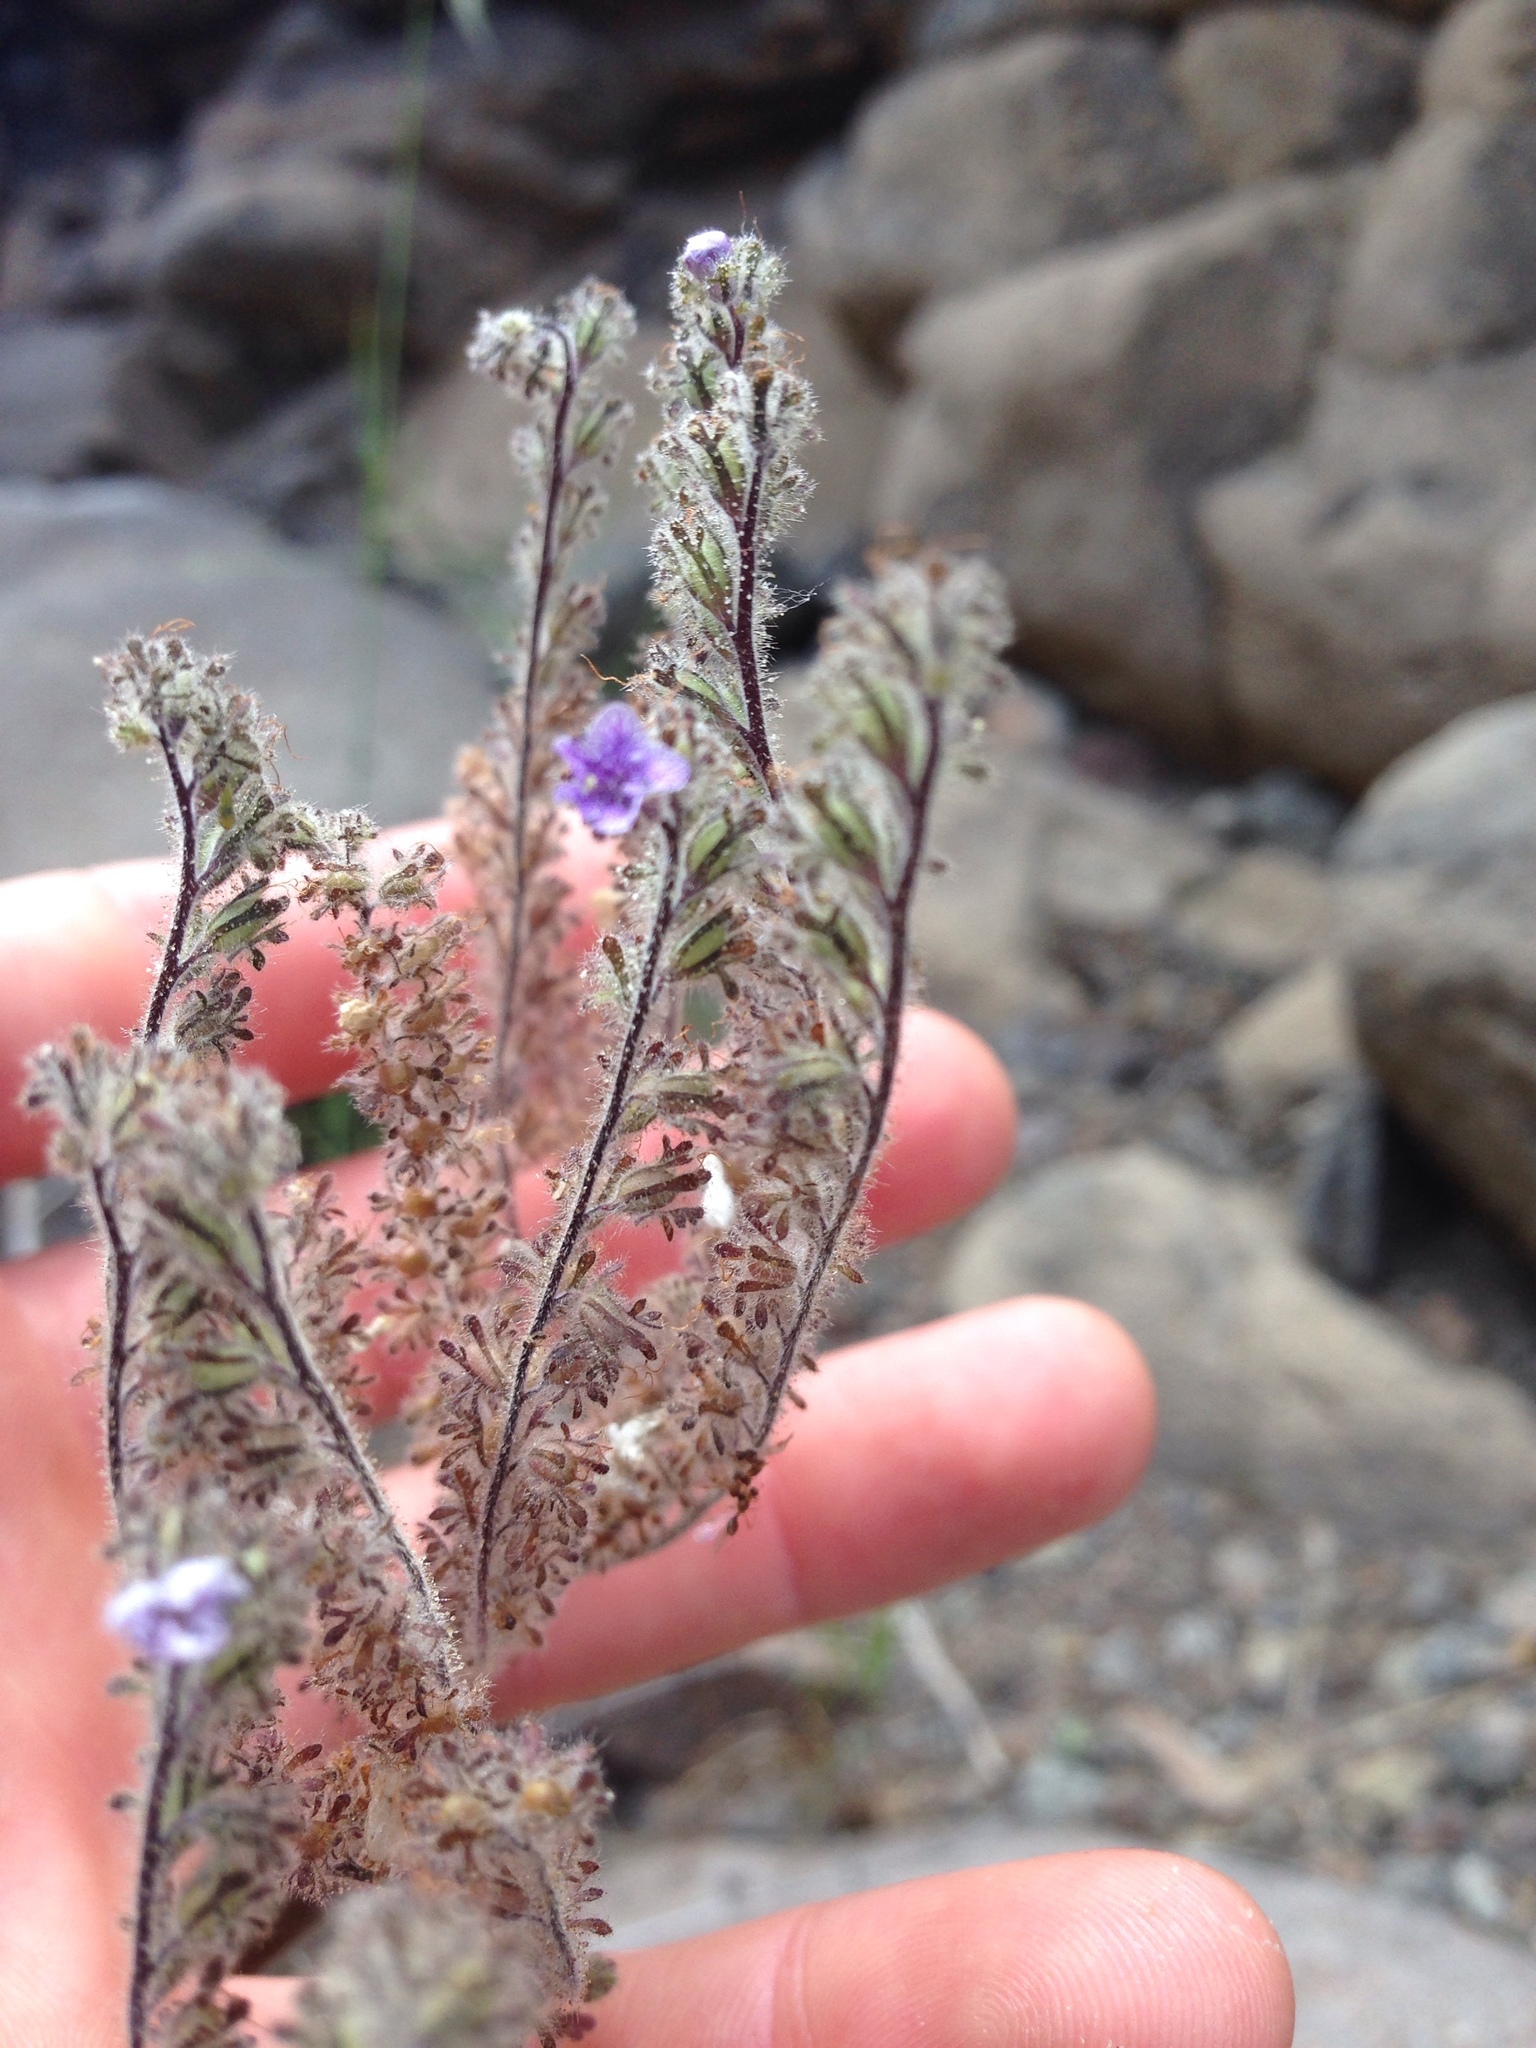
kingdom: Plantae
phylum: Tracheophyta
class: Magnoliopsida
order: Boraginales
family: Hydrophyllaceae
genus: Phacelia
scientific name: Phacelia floribunda
